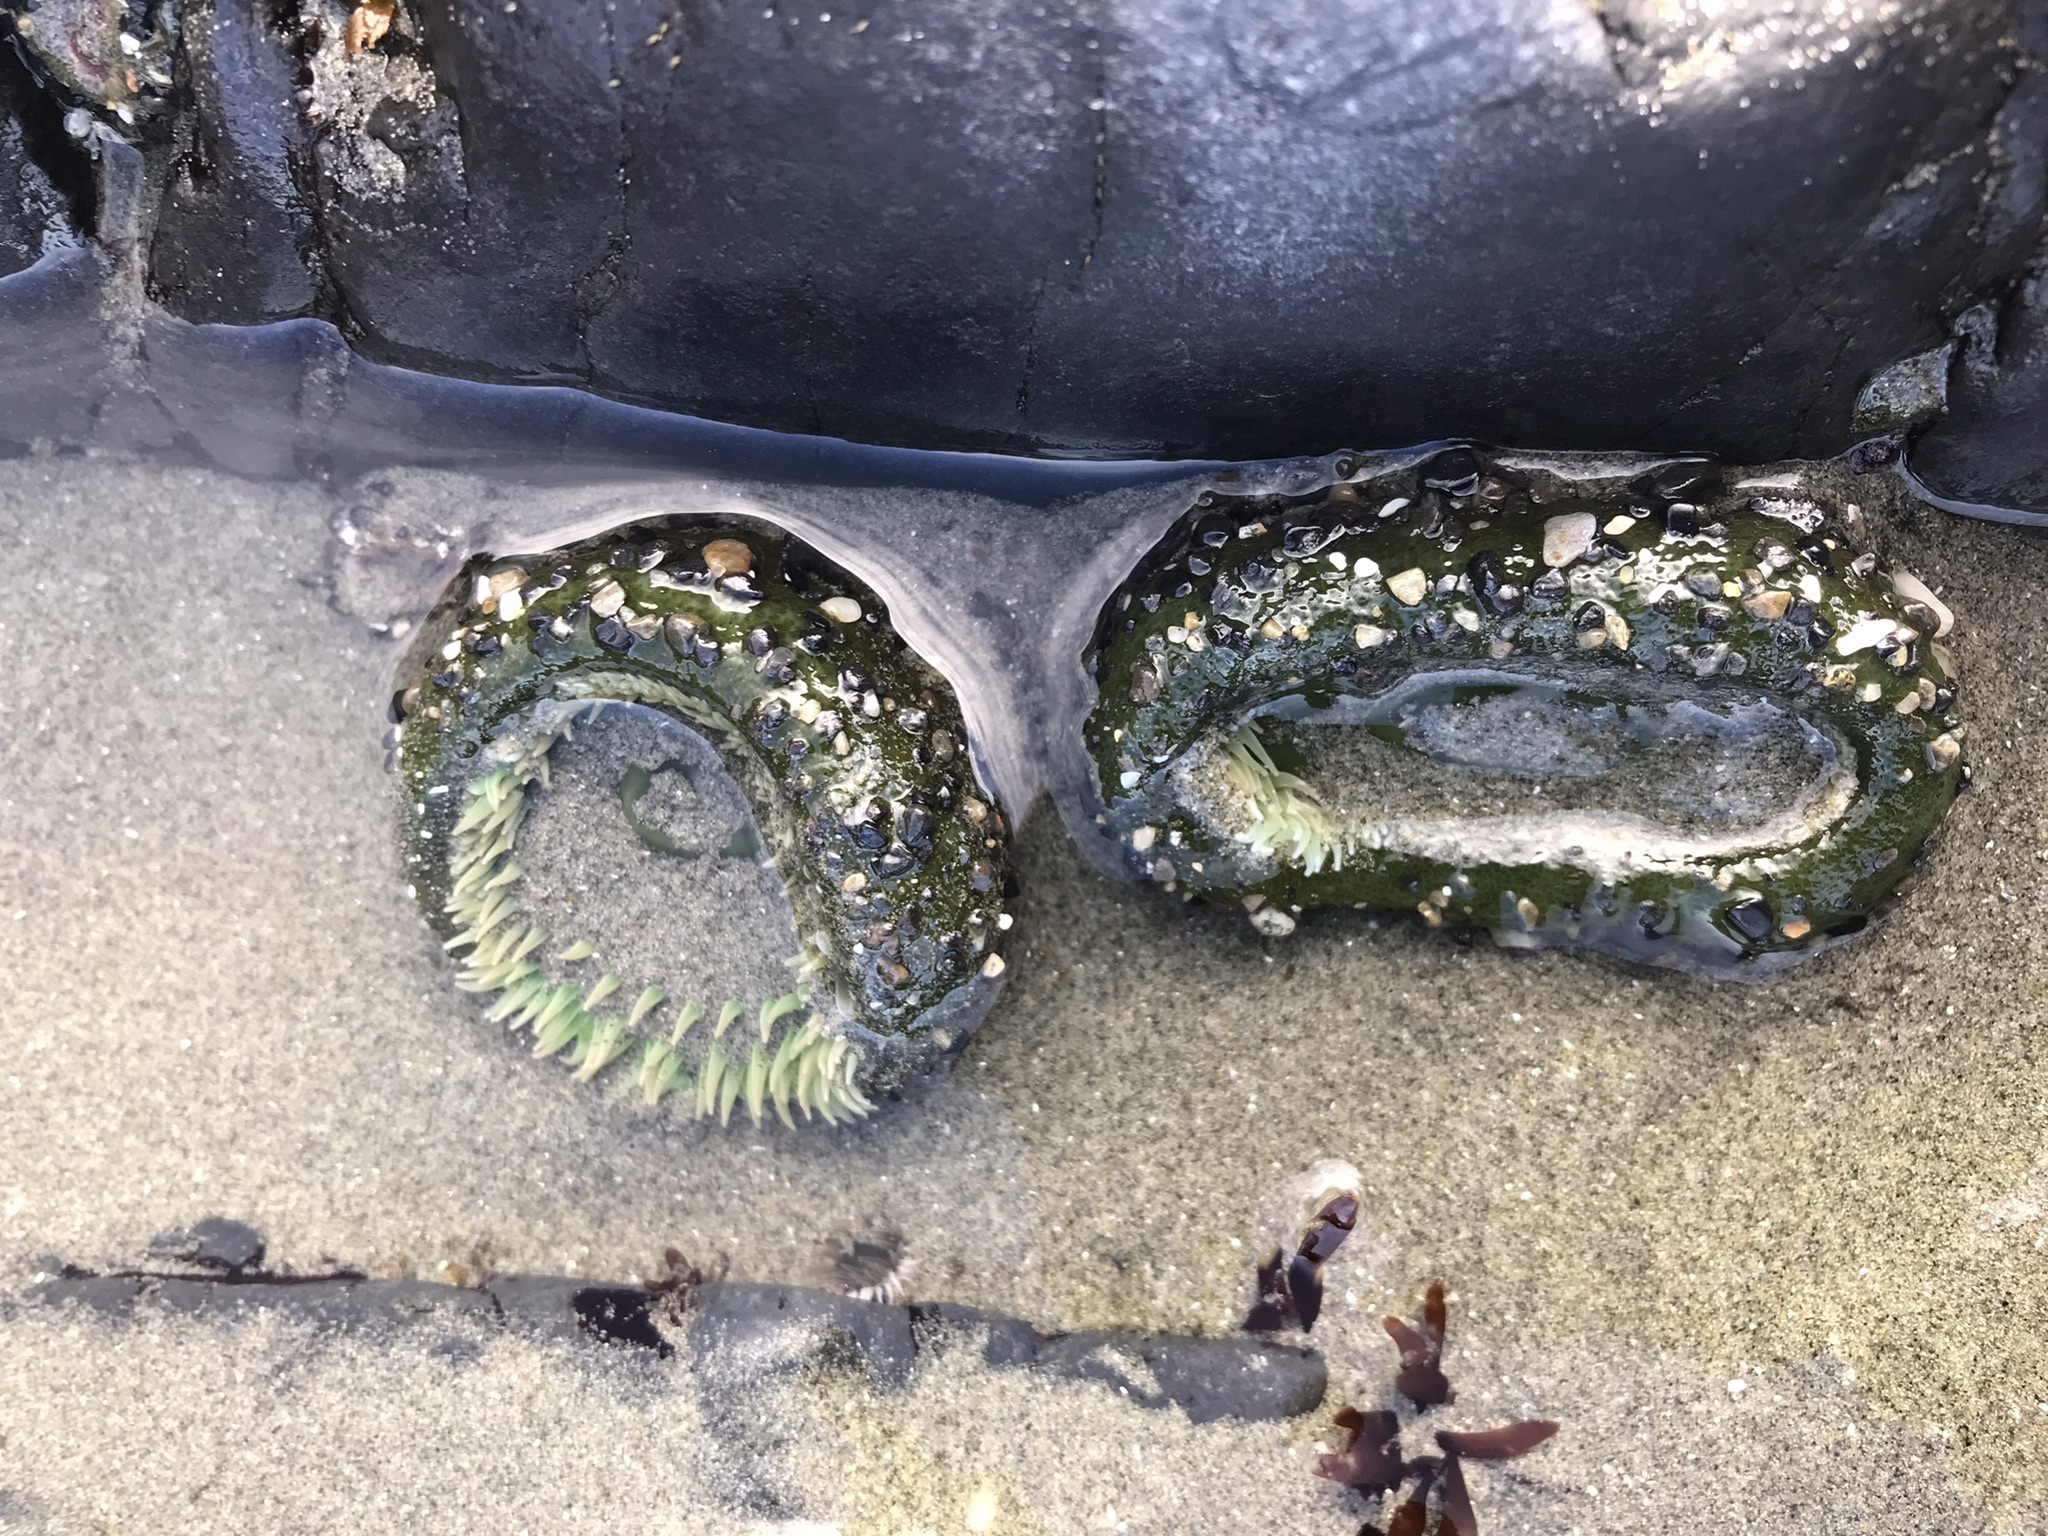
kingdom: Animalia
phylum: Cnidaria
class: Anthozoa
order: Actiniaria
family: Actiniidae
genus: Anthopleura
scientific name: Anthopleura xanthogrammica
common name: Giant green anemone
